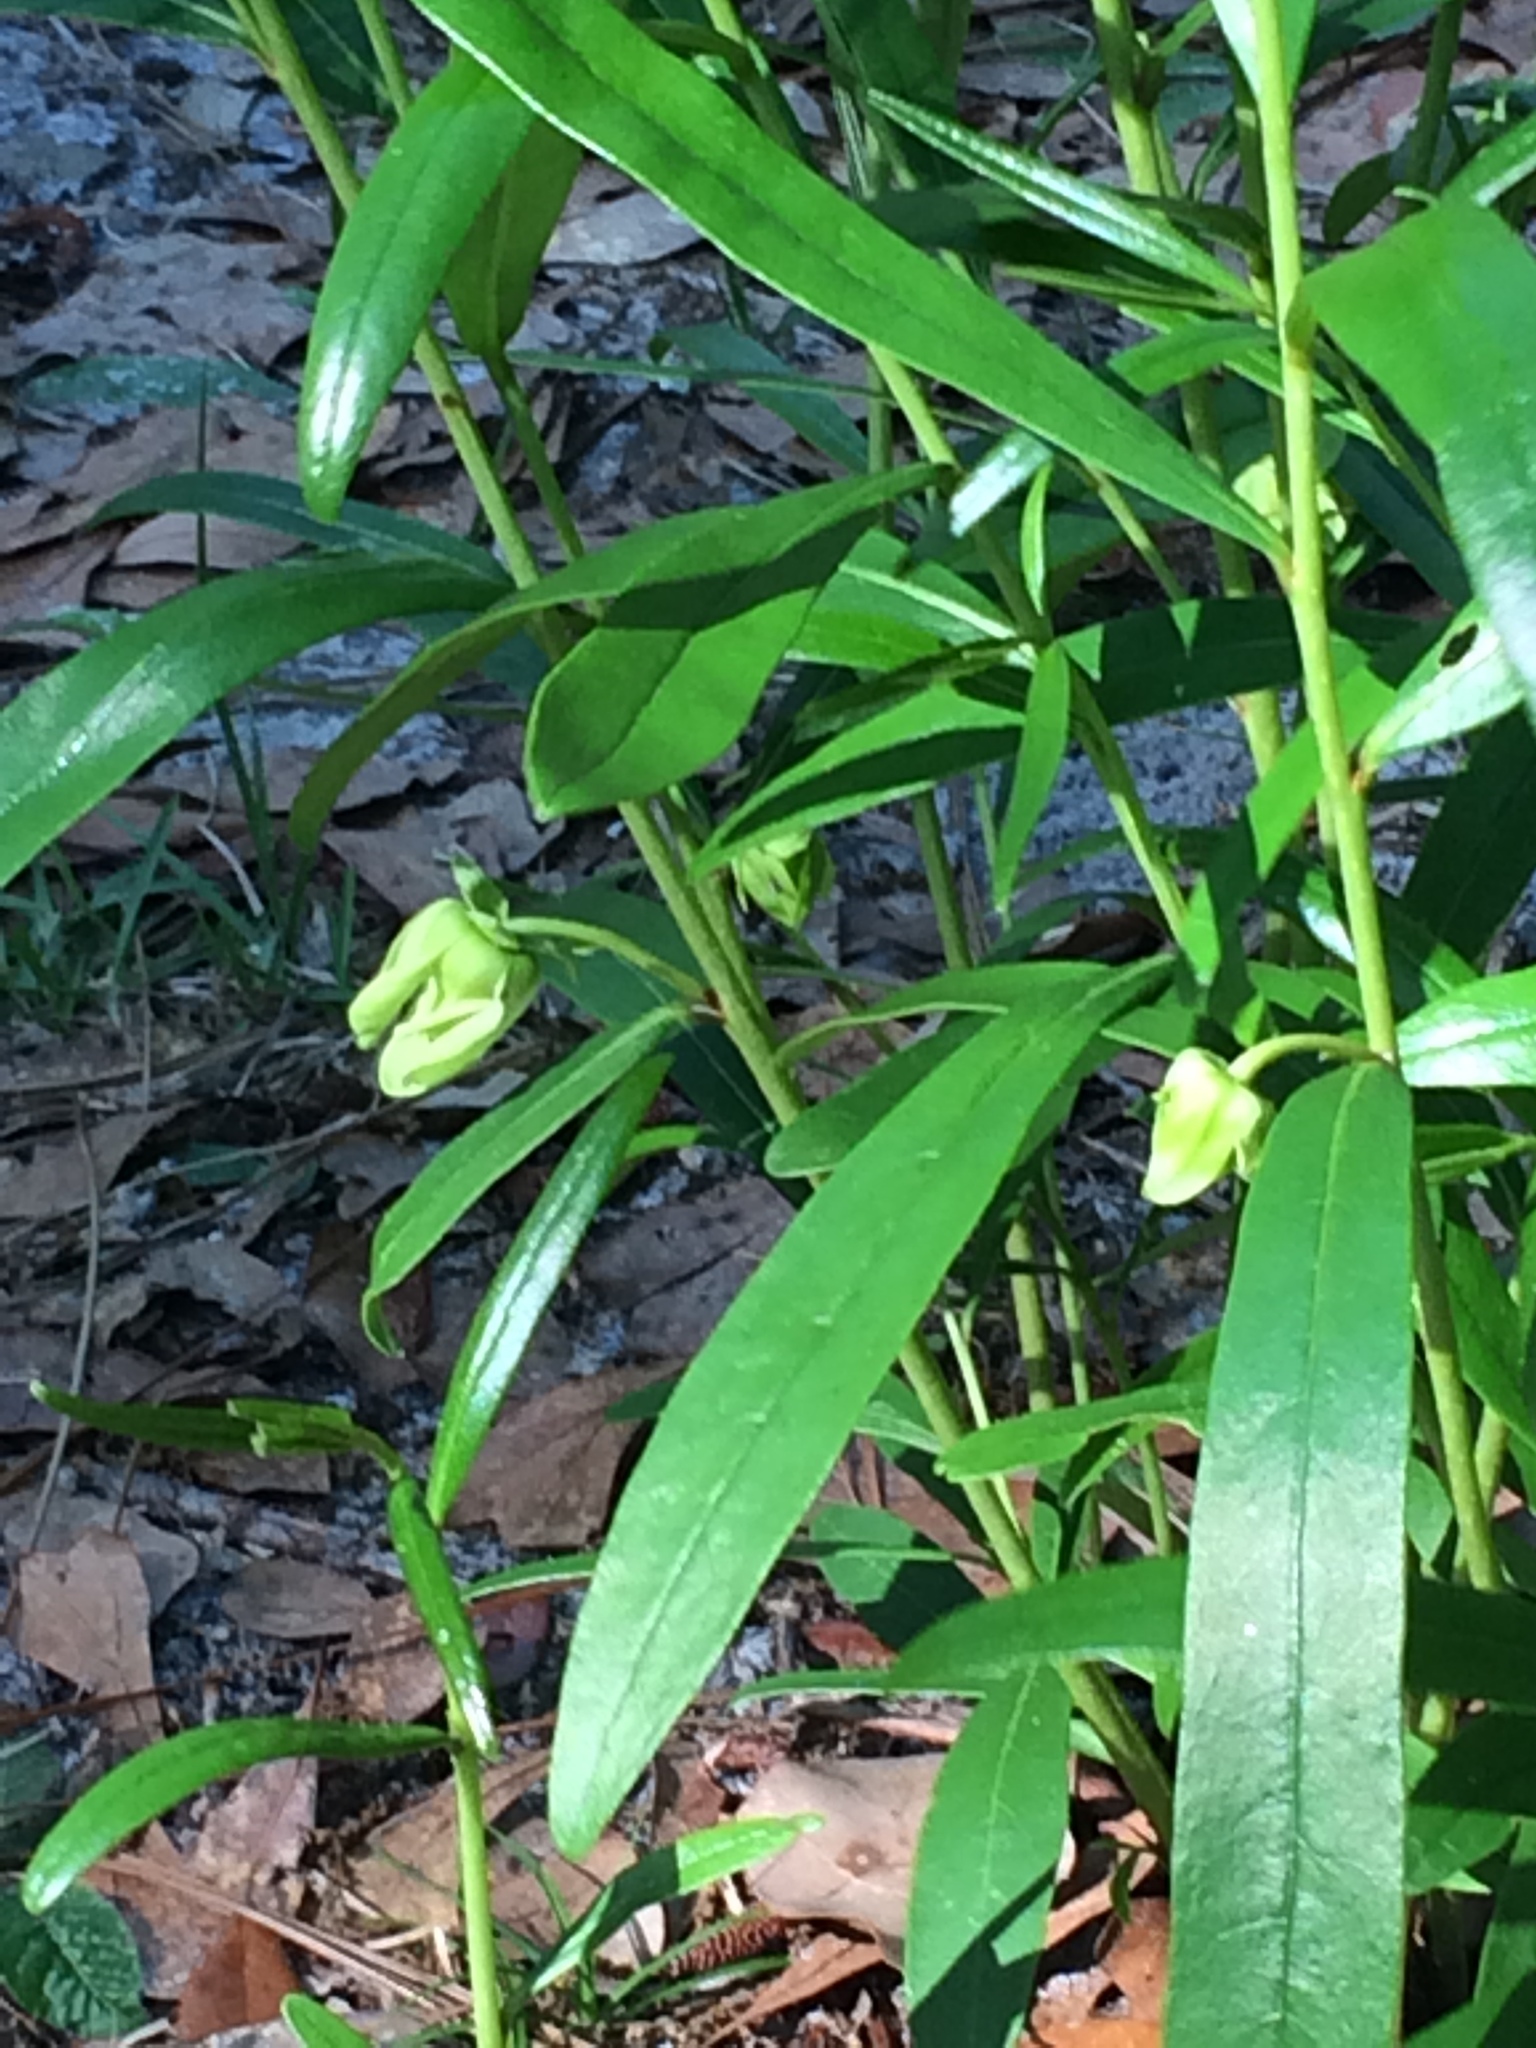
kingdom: Plantae
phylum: Tracheophyta
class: Magnoliopsida
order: Magnoliales
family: Annonaceae
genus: Asimina
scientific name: Asimina longifolia
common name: Polecatbush
